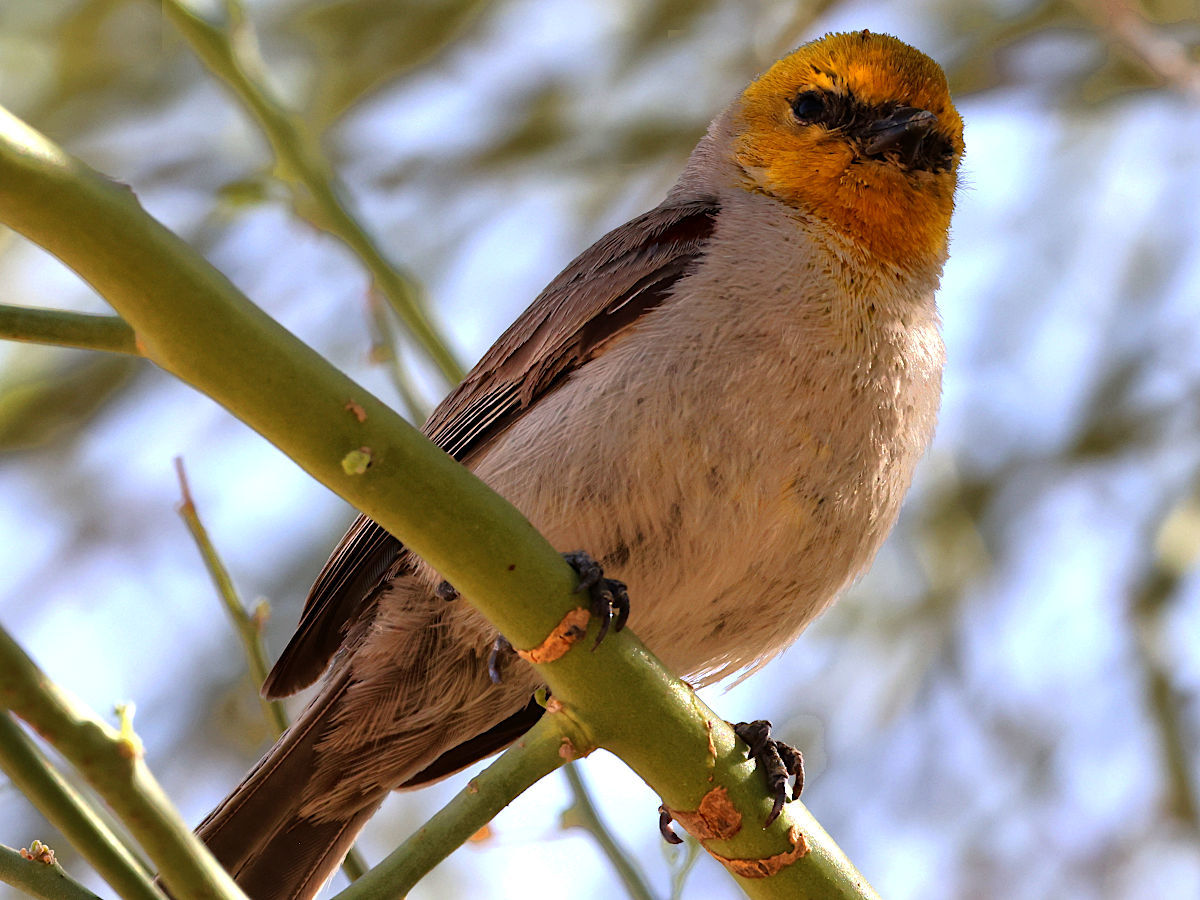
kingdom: Animalia
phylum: Chordata
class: Aves
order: Passeriformes
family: Remizidae
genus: Auriparus
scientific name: Auriparus flaviceps
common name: Verdin
